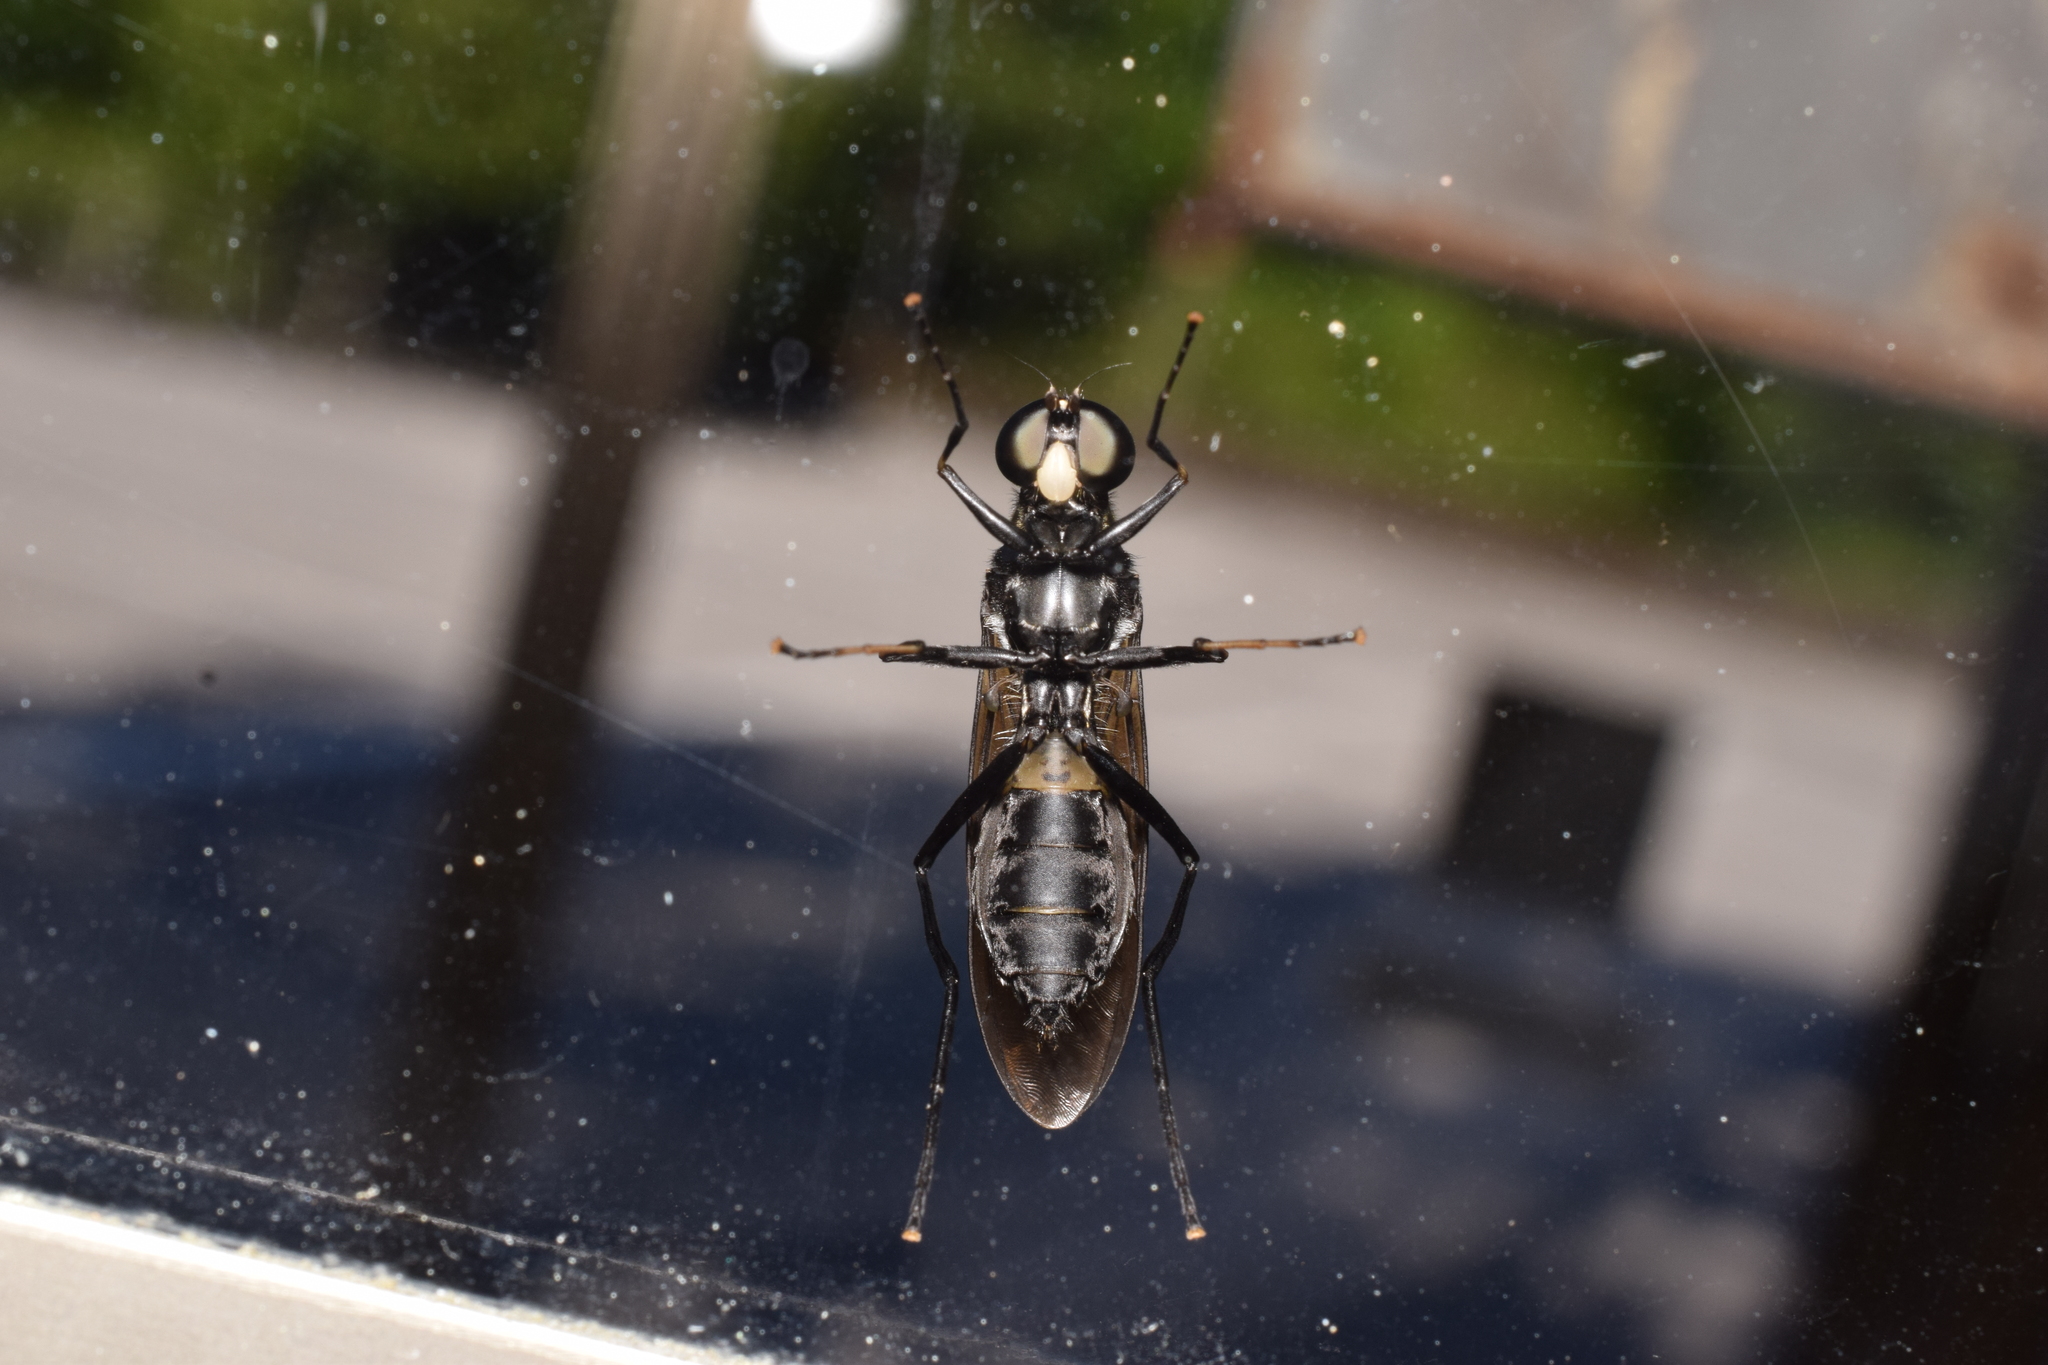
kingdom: Animalia
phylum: Arthropoda
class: Insecta
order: Diptera
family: Stratiomyidae
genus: Ptecticus
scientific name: Ptecticus japonicus
